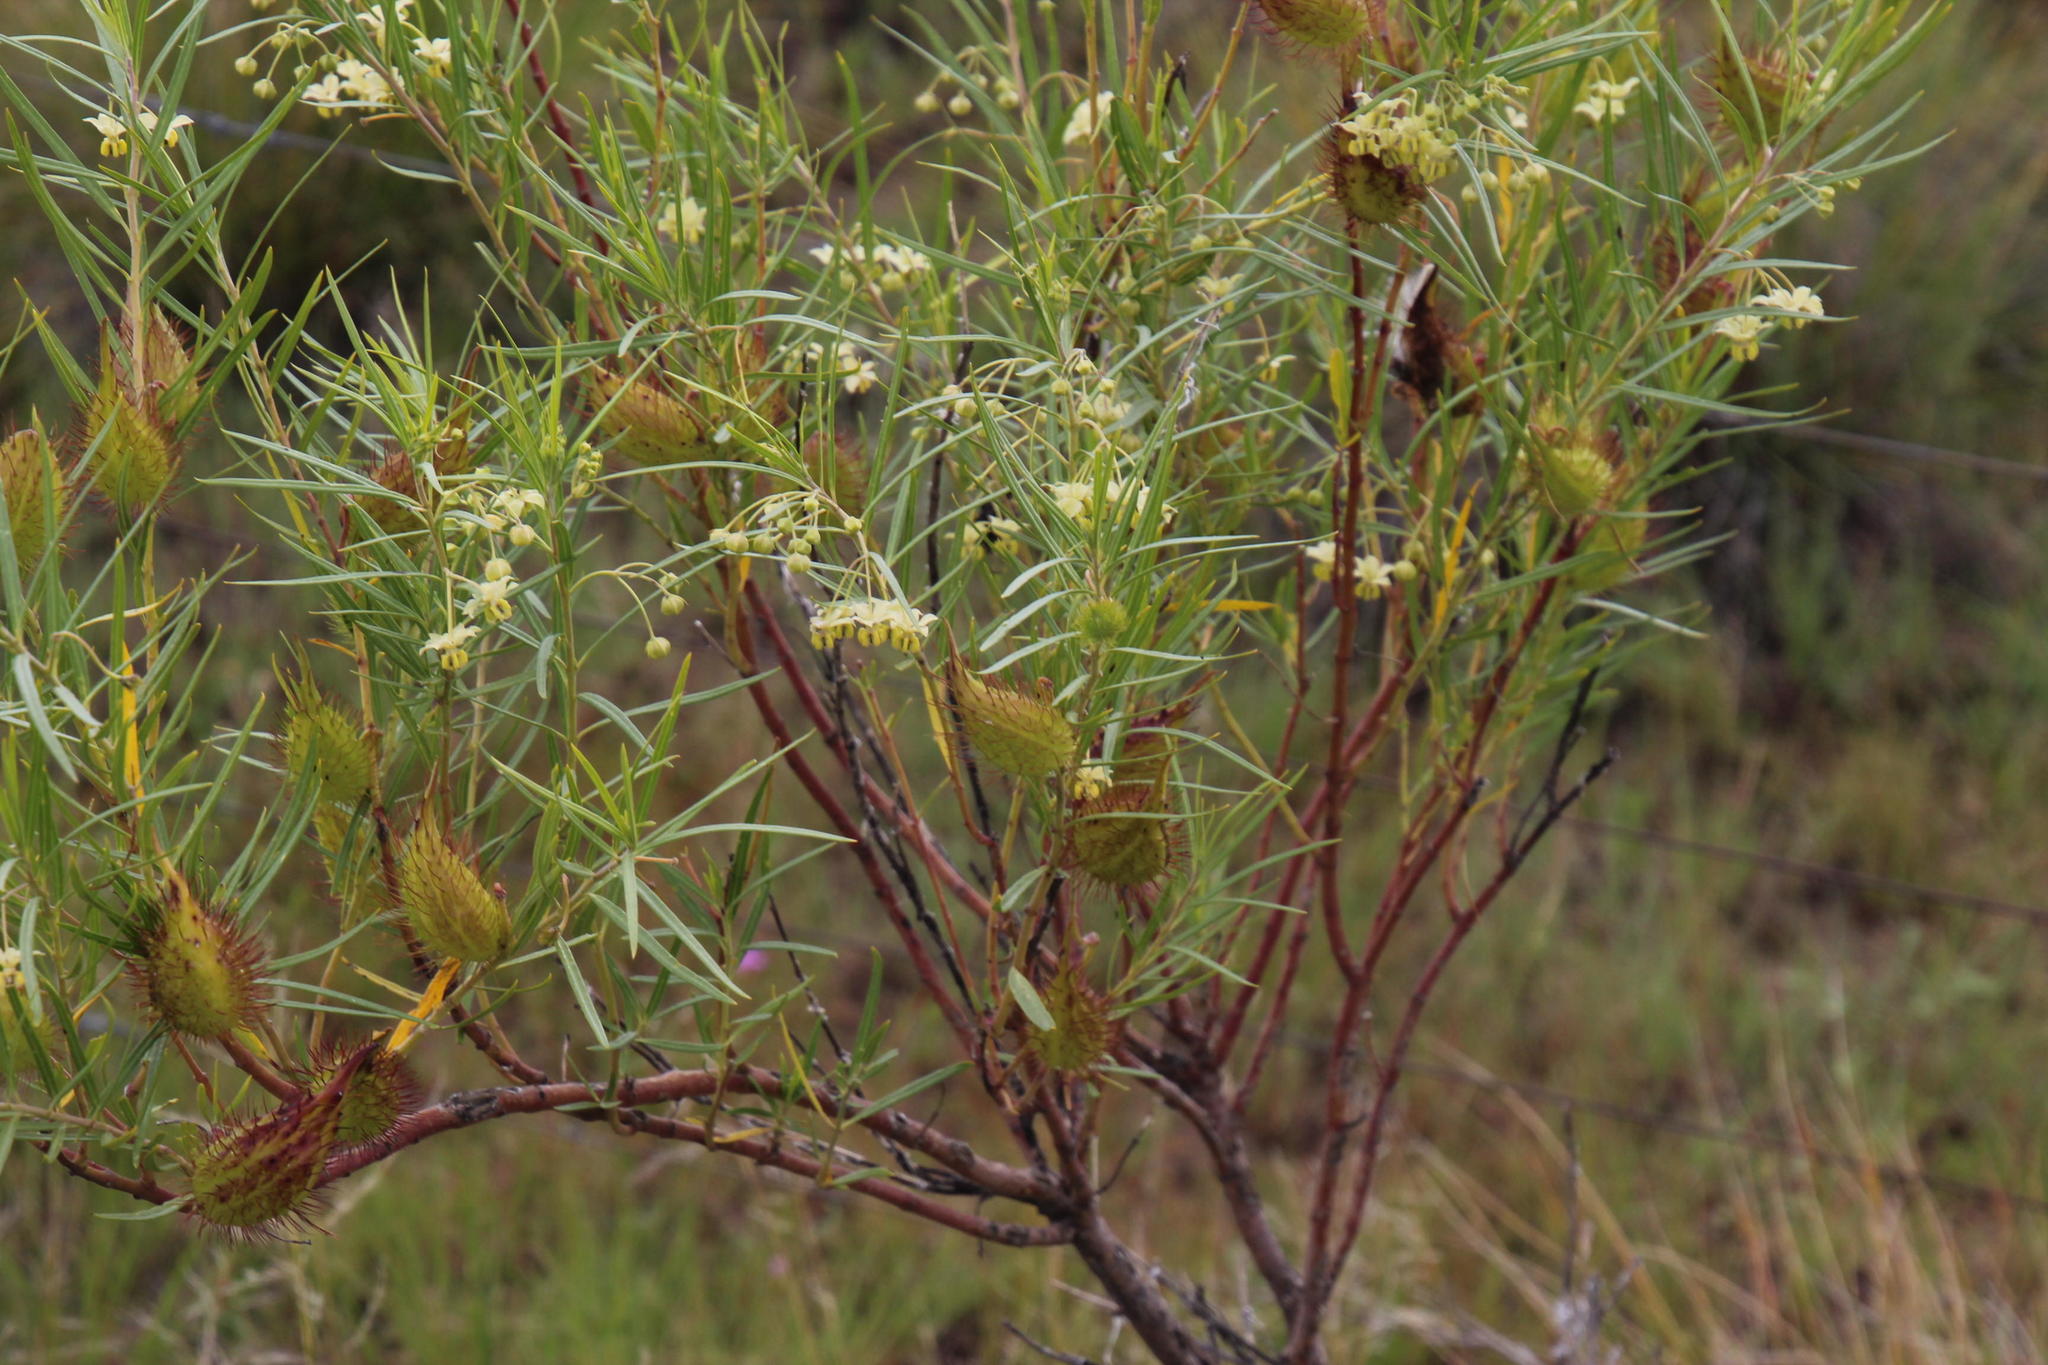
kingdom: Plantae
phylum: Tracheophyta
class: Magnoliopsida
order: Gentianales
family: Apocynaceae
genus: Gomphocarpus
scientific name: Gomphocarpus fruticosus
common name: Milkweed
